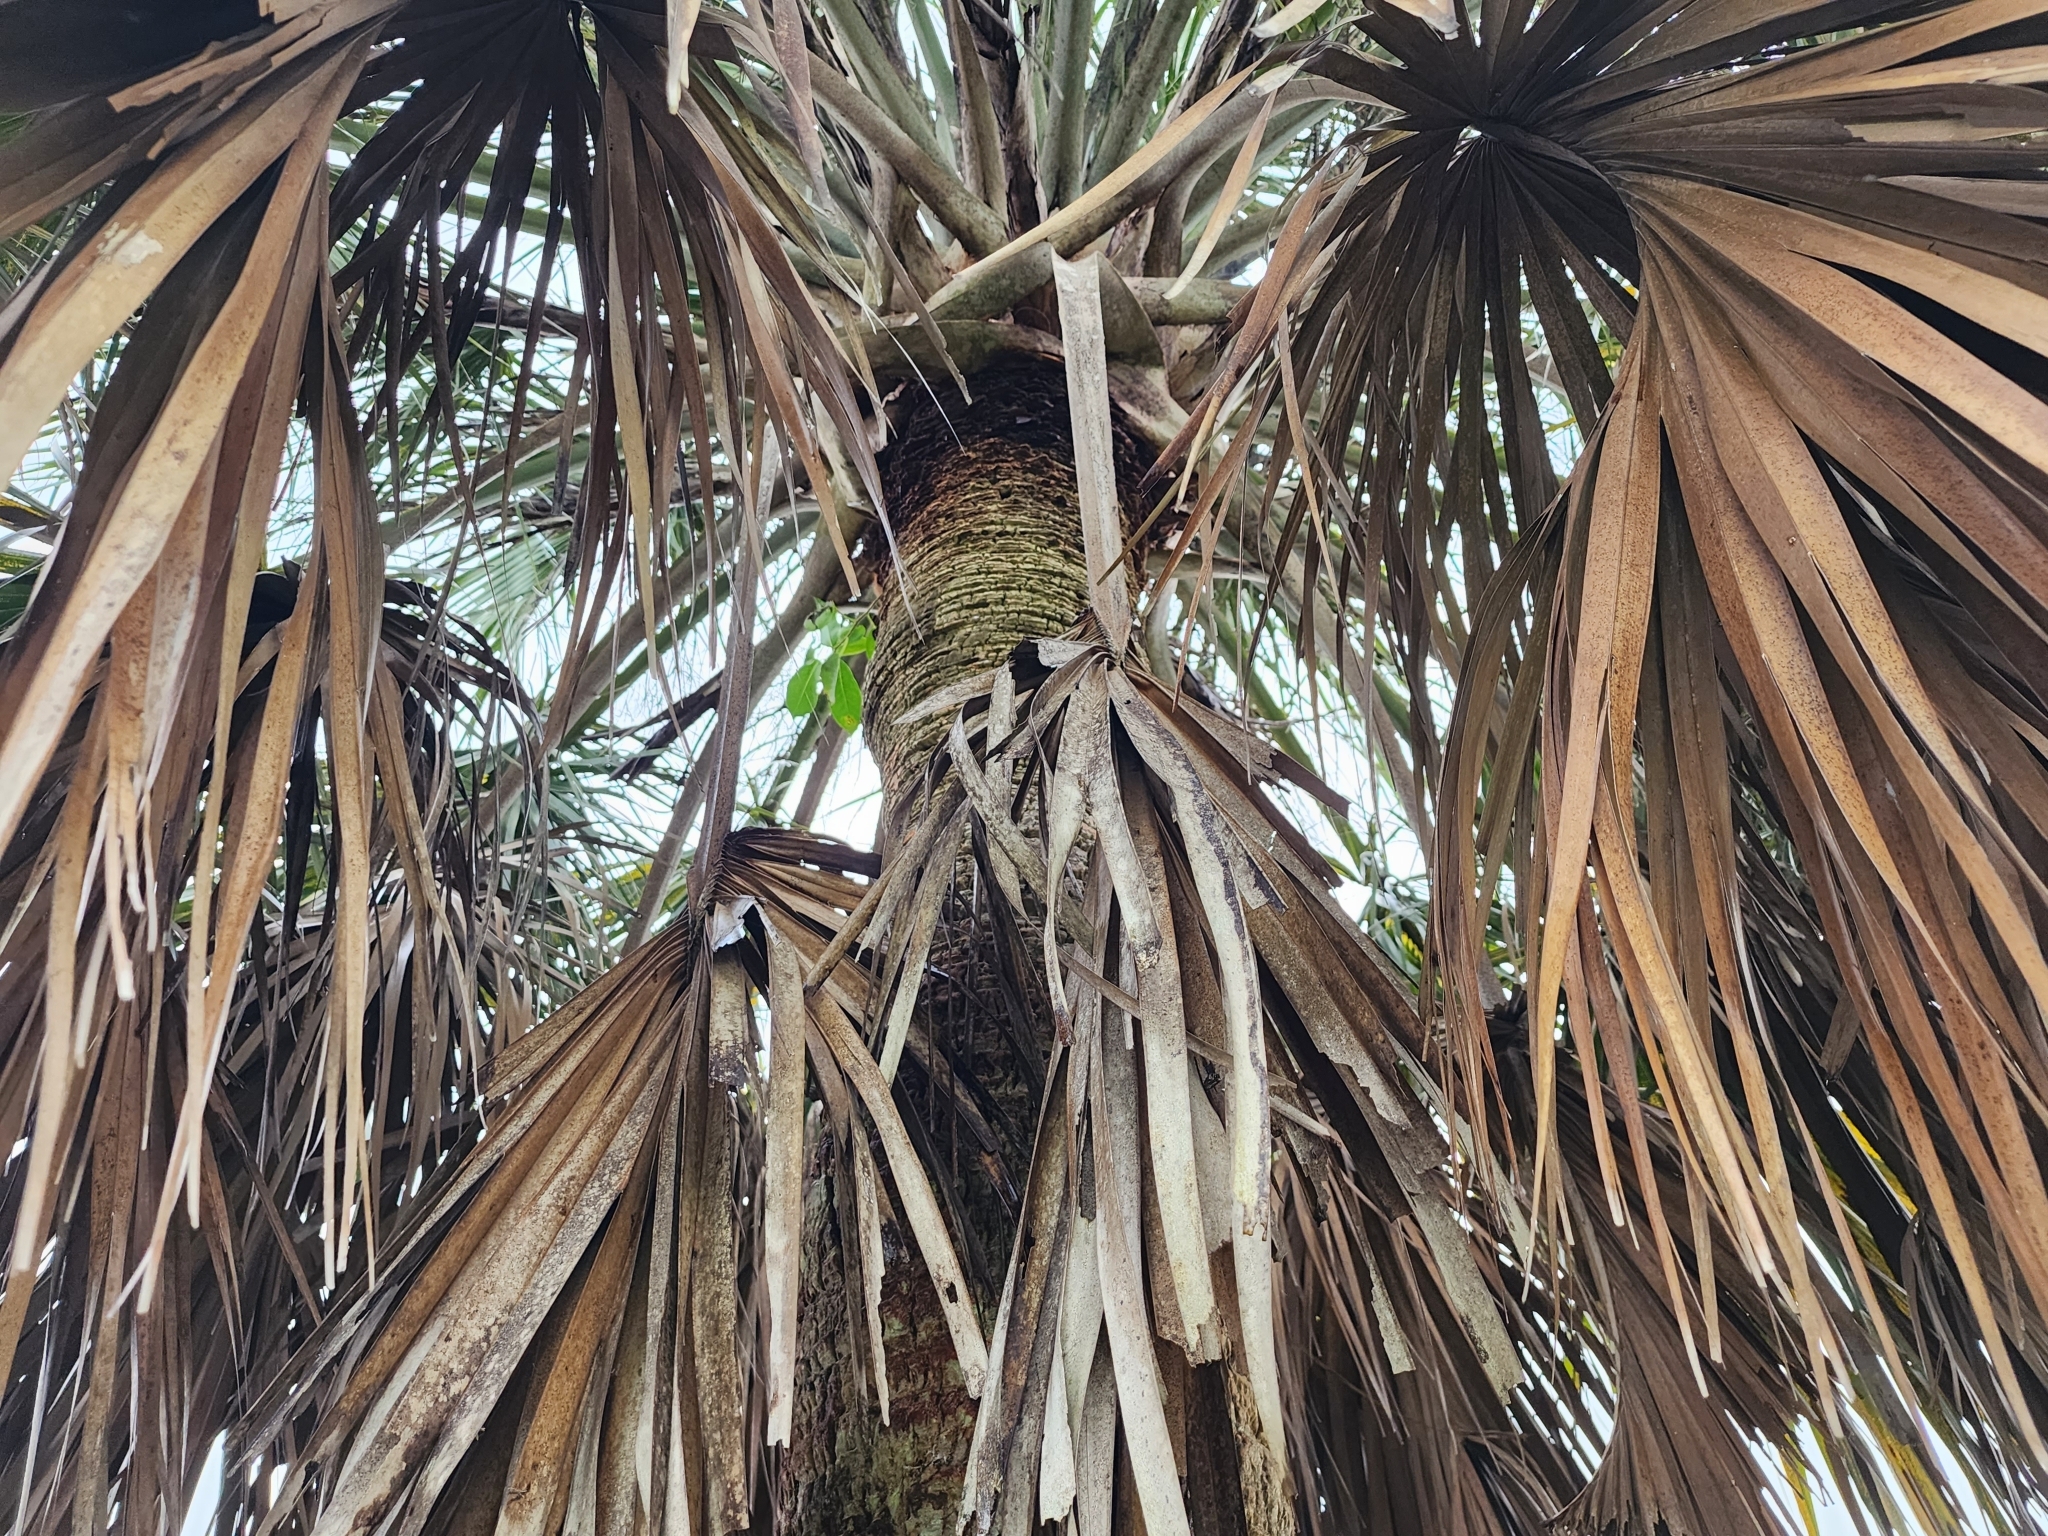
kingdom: Plantae
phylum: Tracheophyta
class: Liliopsida
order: Arecales
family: Arecaceae
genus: Sabal
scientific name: Sabal palmetto
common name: Blue palmetto
